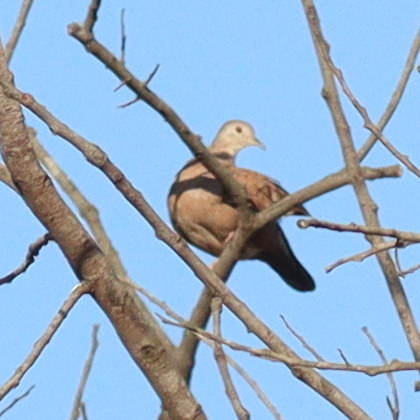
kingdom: Animalia
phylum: Chordata
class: Aves
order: Columbiformes
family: Columbidae
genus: Columbina
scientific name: Columbina talpacoti
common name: Ruddy ground dove
